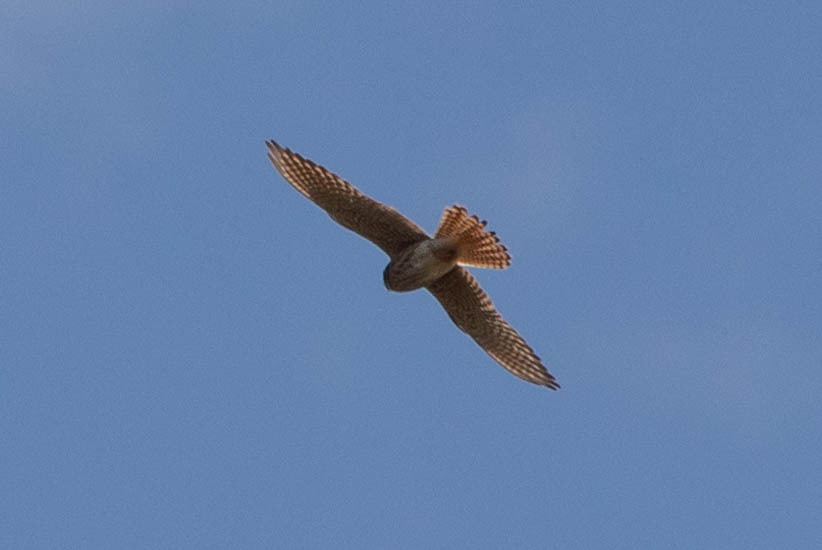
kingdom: Animalia
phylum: Chordata
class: Aves
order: Falconiformes
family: Falconidae
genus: Falco
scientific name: Falco sparverius
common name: American kestrel
